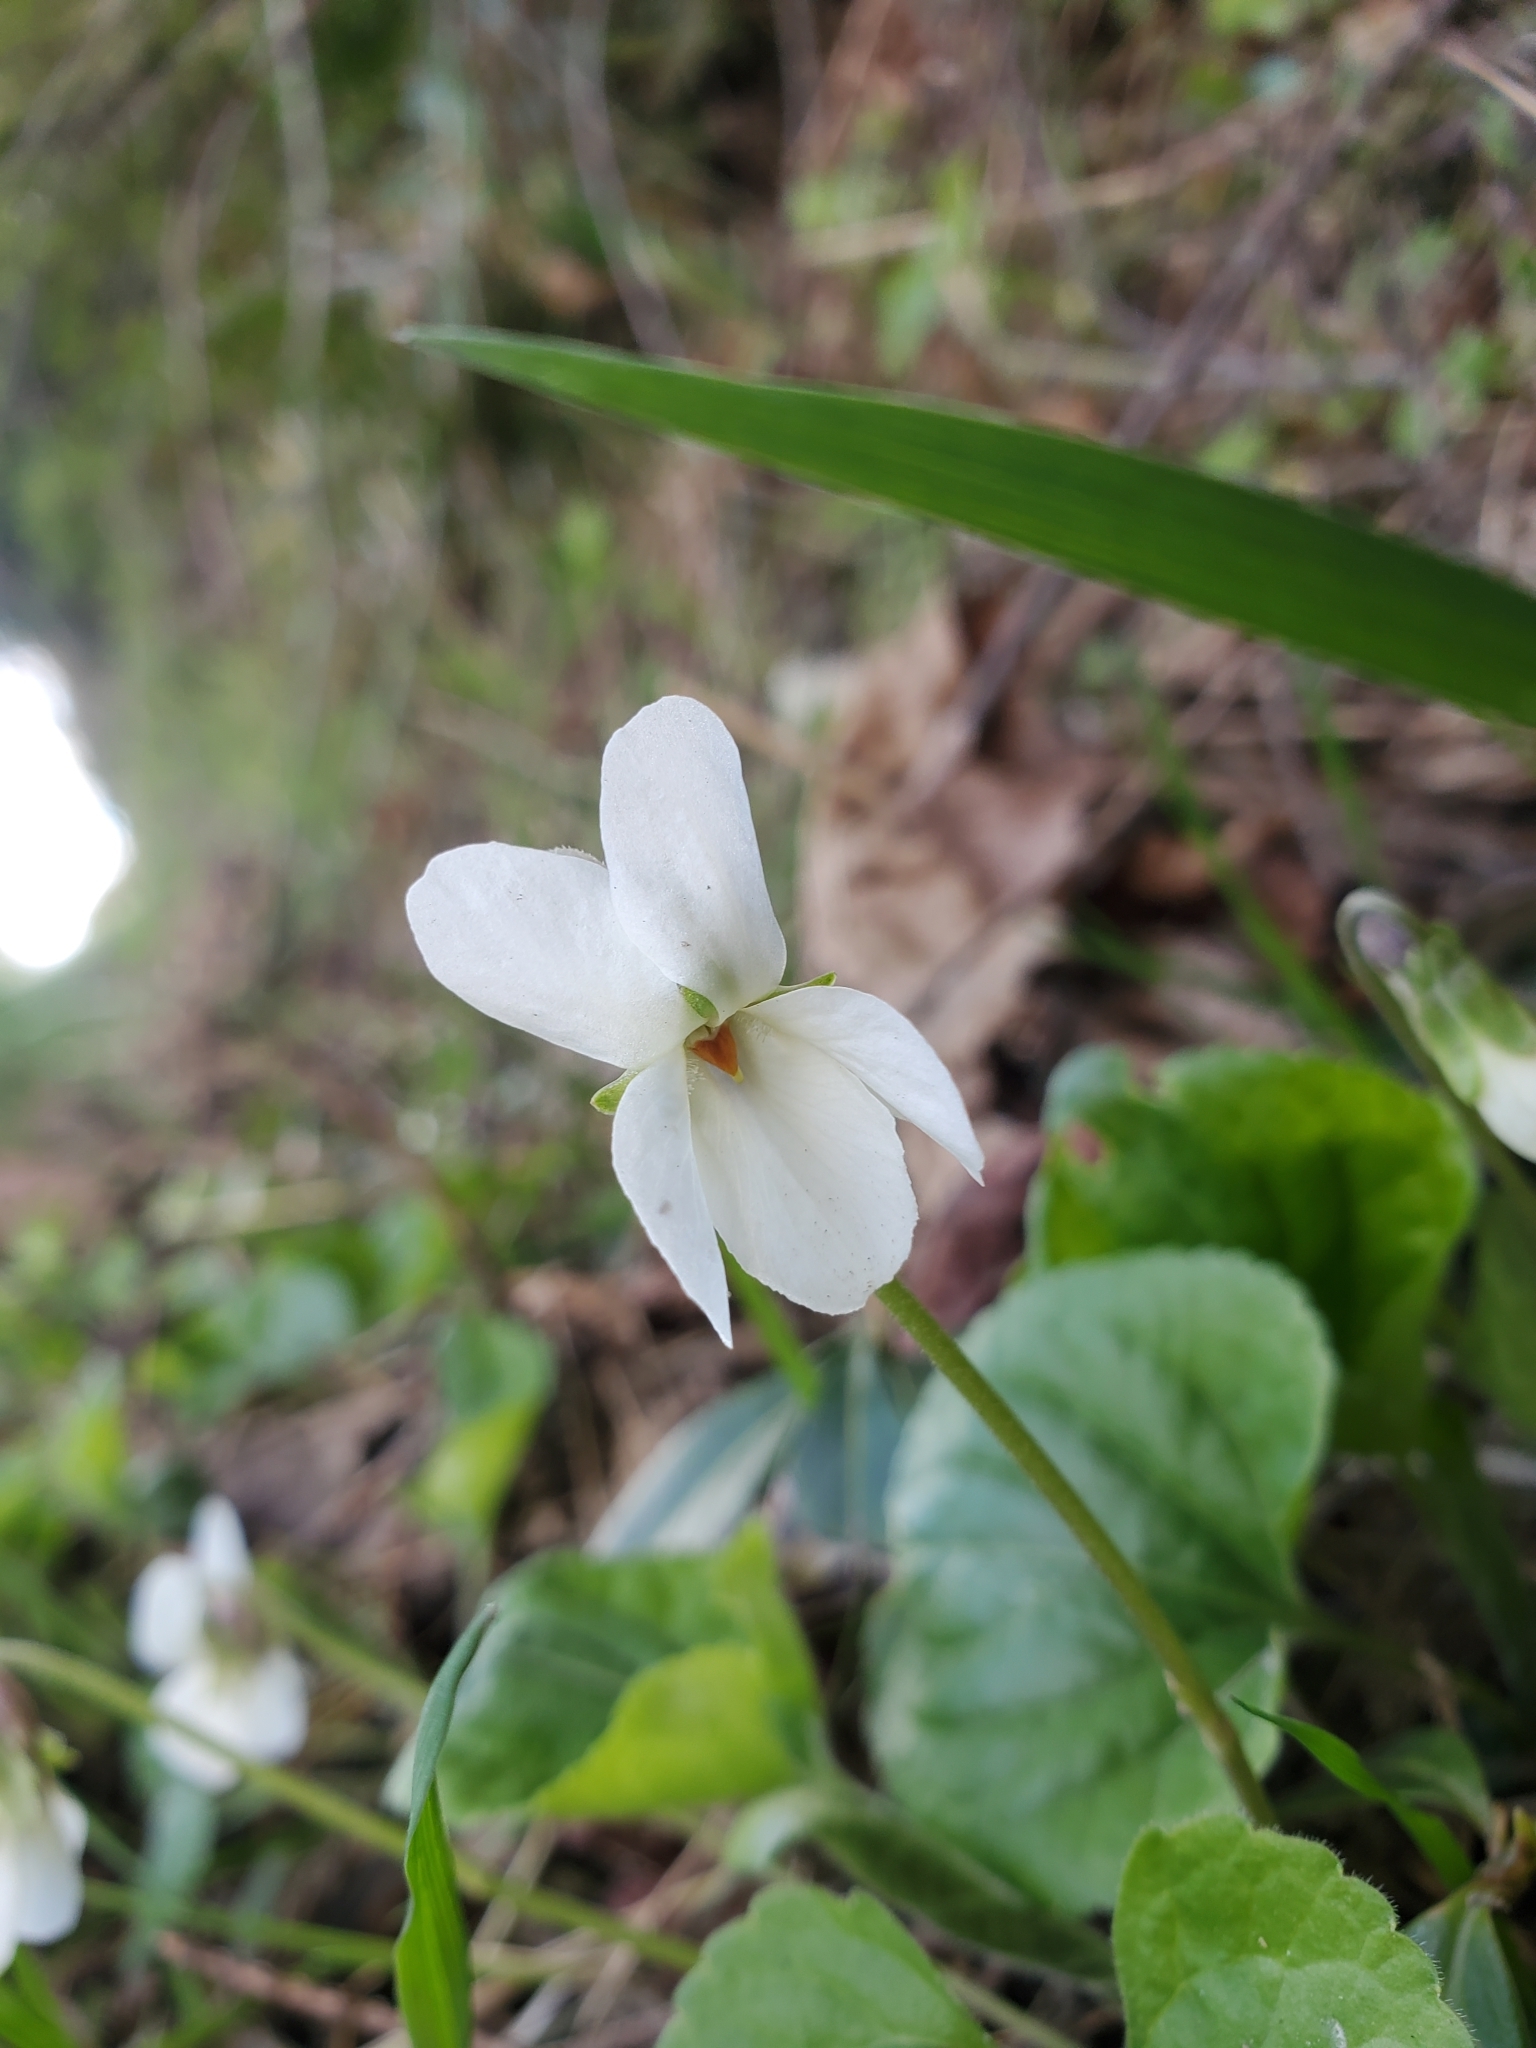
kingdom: Plantae
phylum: Tracheophyta
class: Magnoliopsida
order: Malpighiales
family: Violaceae
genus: Viola
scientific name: Viola odorata
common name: Sweet violet
